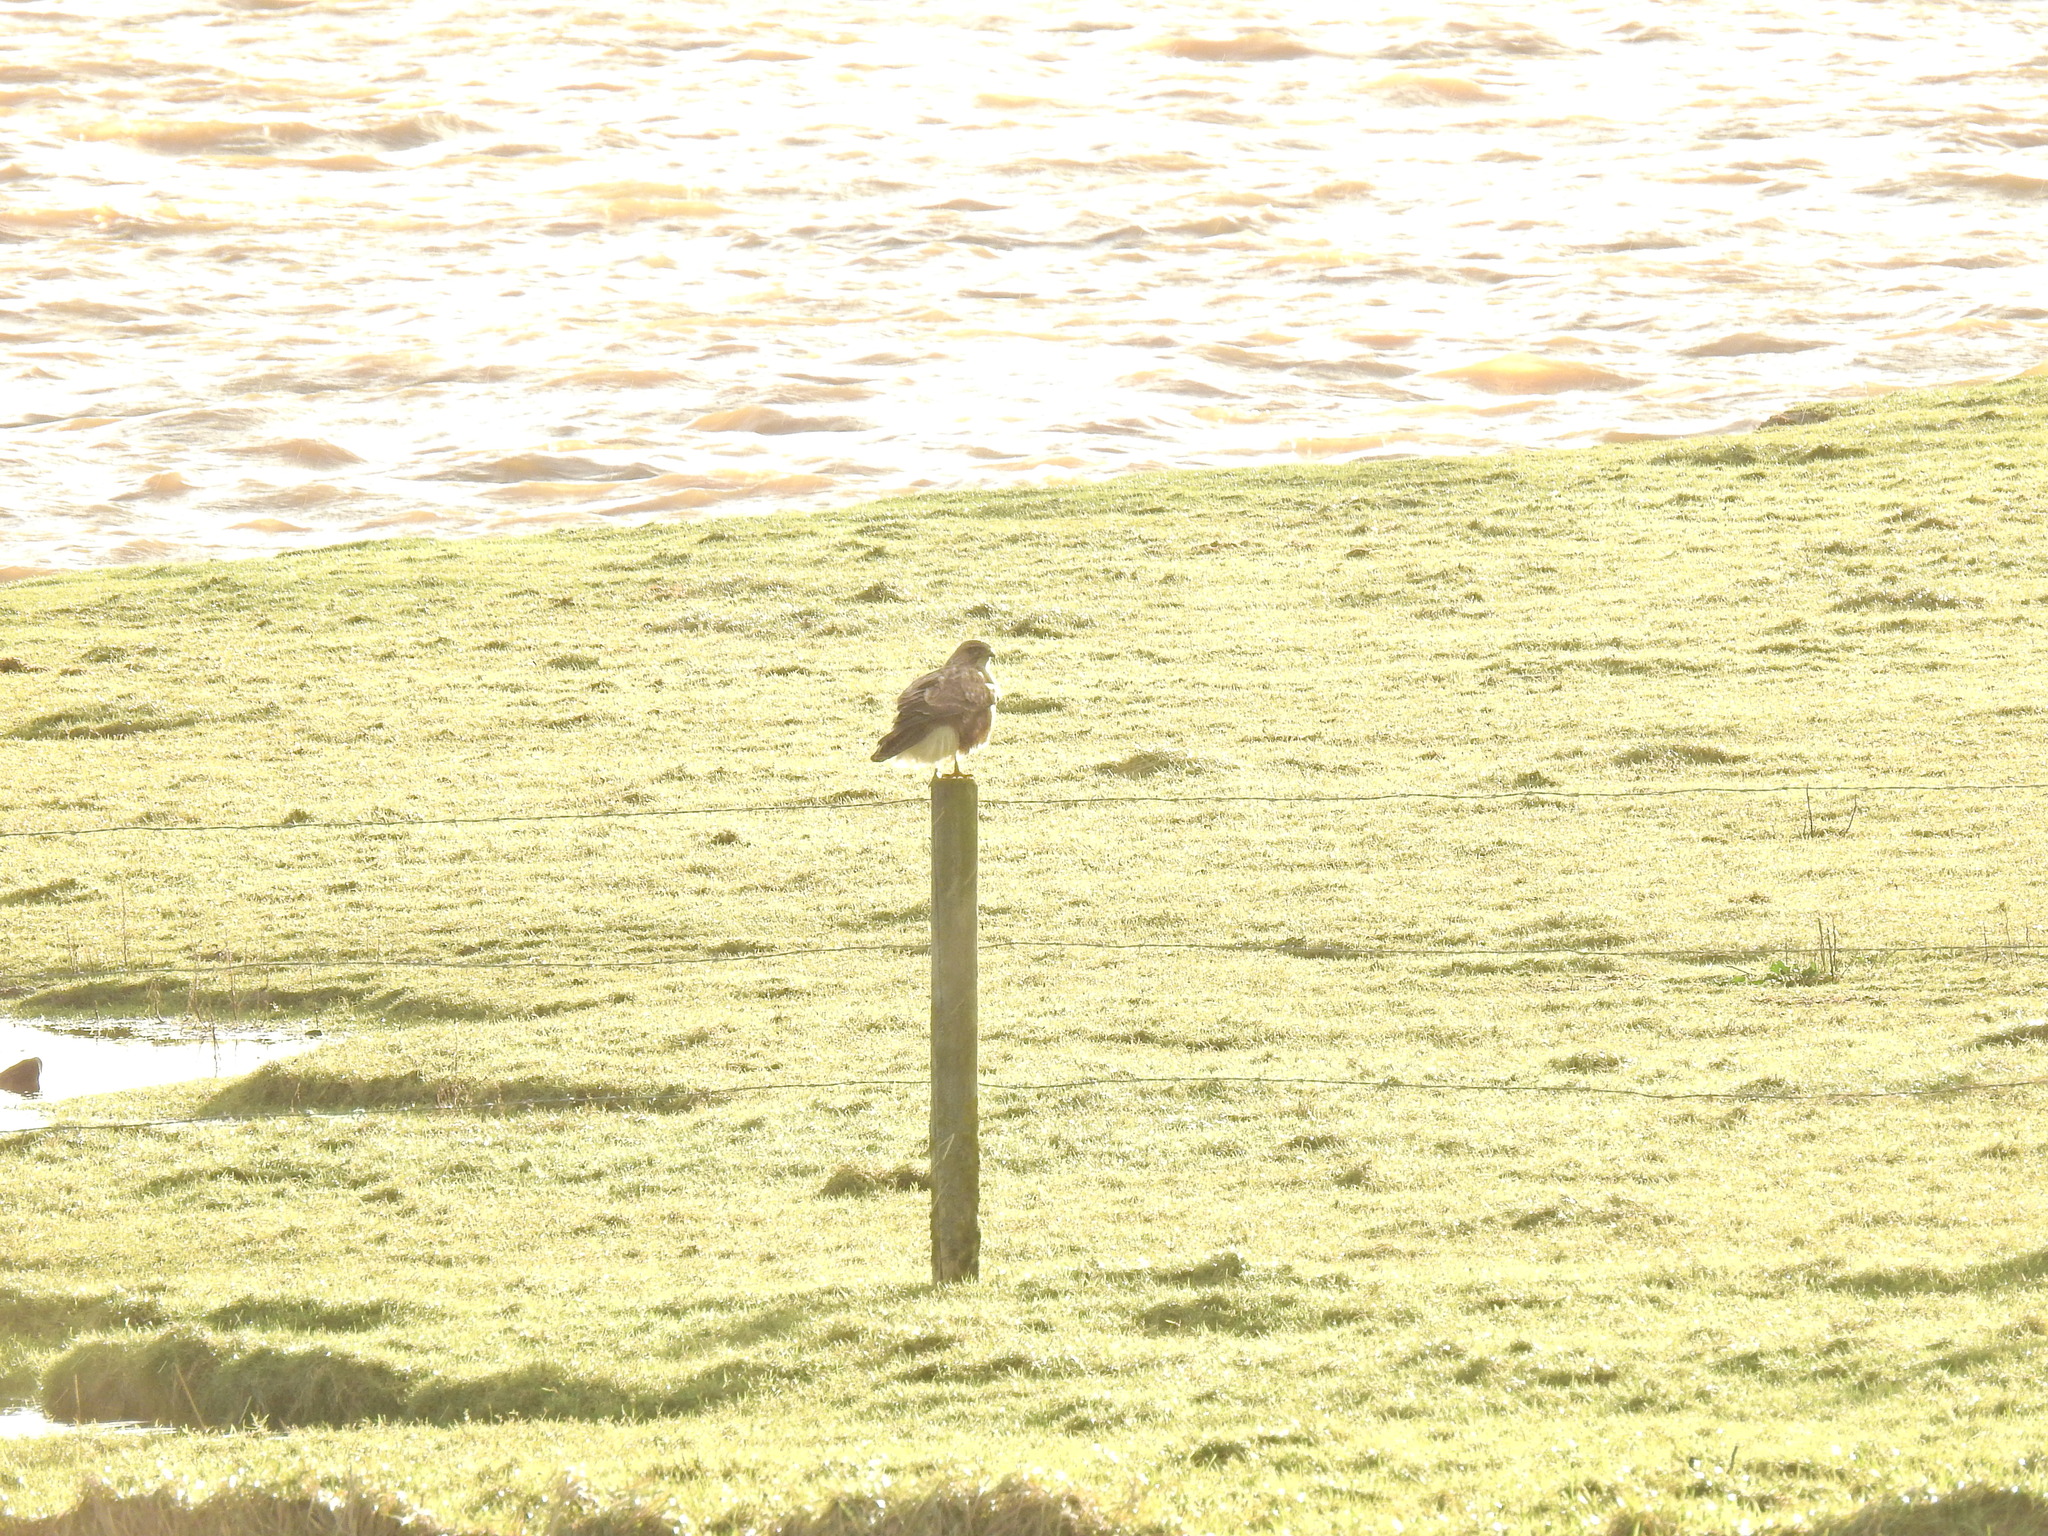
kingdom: Animalia
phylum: Chordata
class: Aves
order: Accipitriformes
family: Accipitridae
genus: Buteo
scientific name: Buteo buteo
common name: Common buzzard
